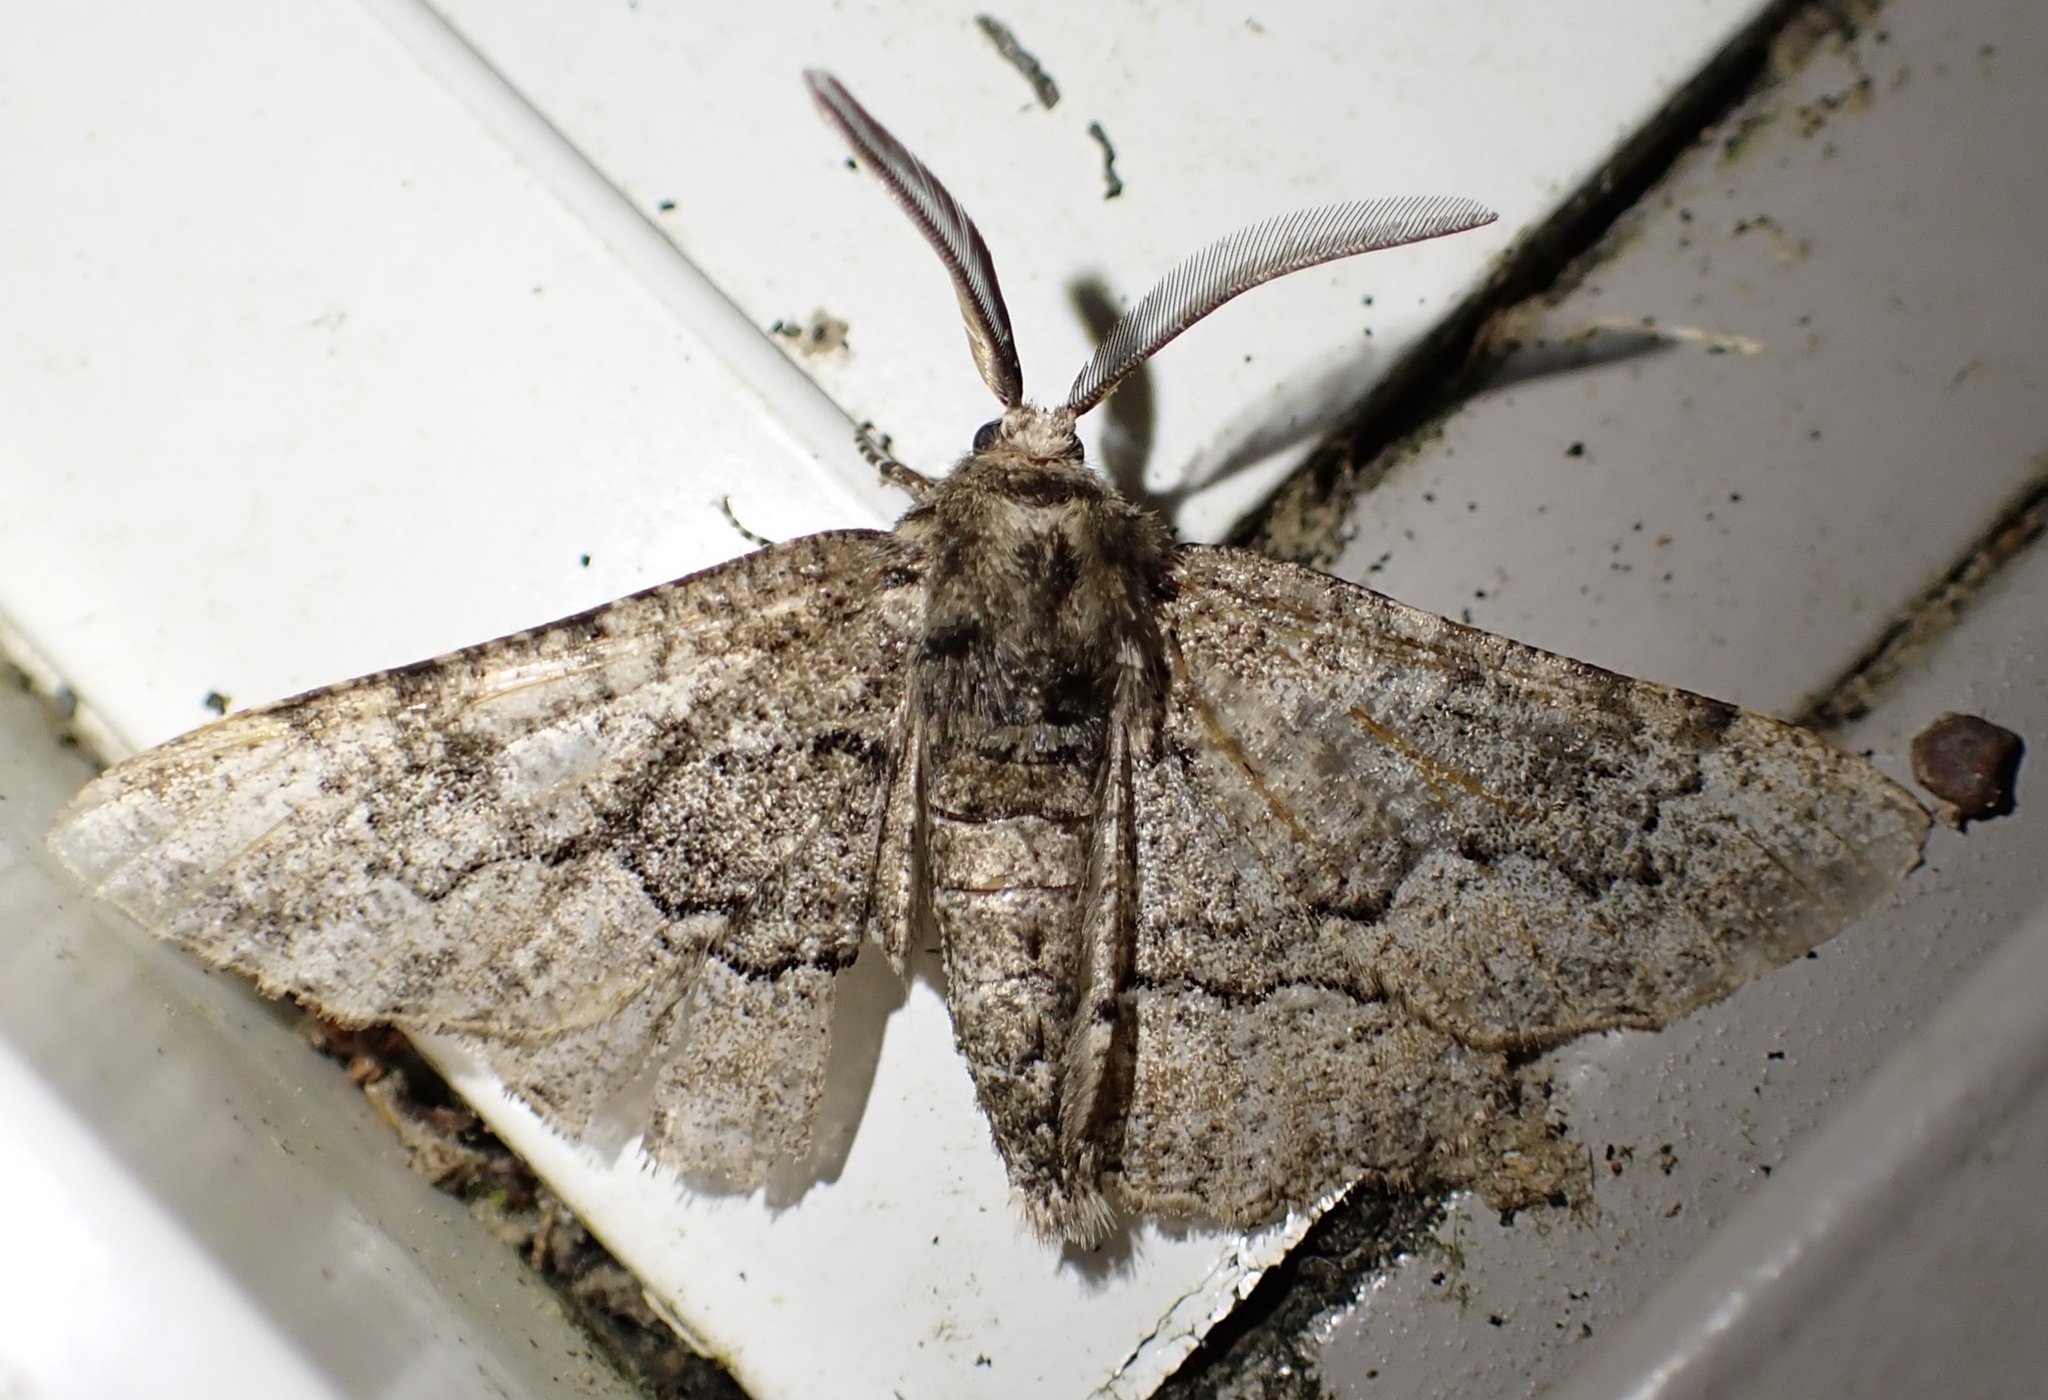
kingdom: Animalia
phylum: Arthropoda
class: Insecta
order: Lepidoptera
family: Geometridae
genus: Phaeoura
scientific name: Phaeoura quernaria
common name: Oak beauty
